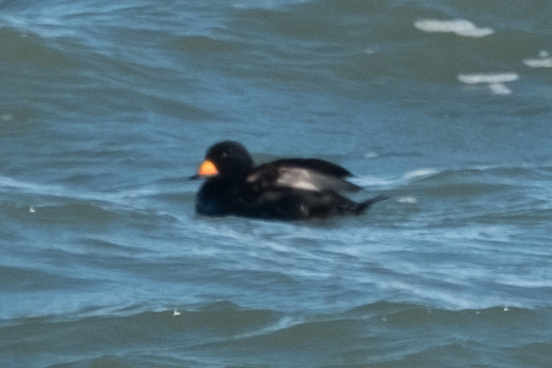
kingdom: Animalia
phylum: Chordata
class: Aves
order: Anseriformes
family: Anatidae
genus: Melanitta
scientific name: Melanitta americana
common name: Black scoter
